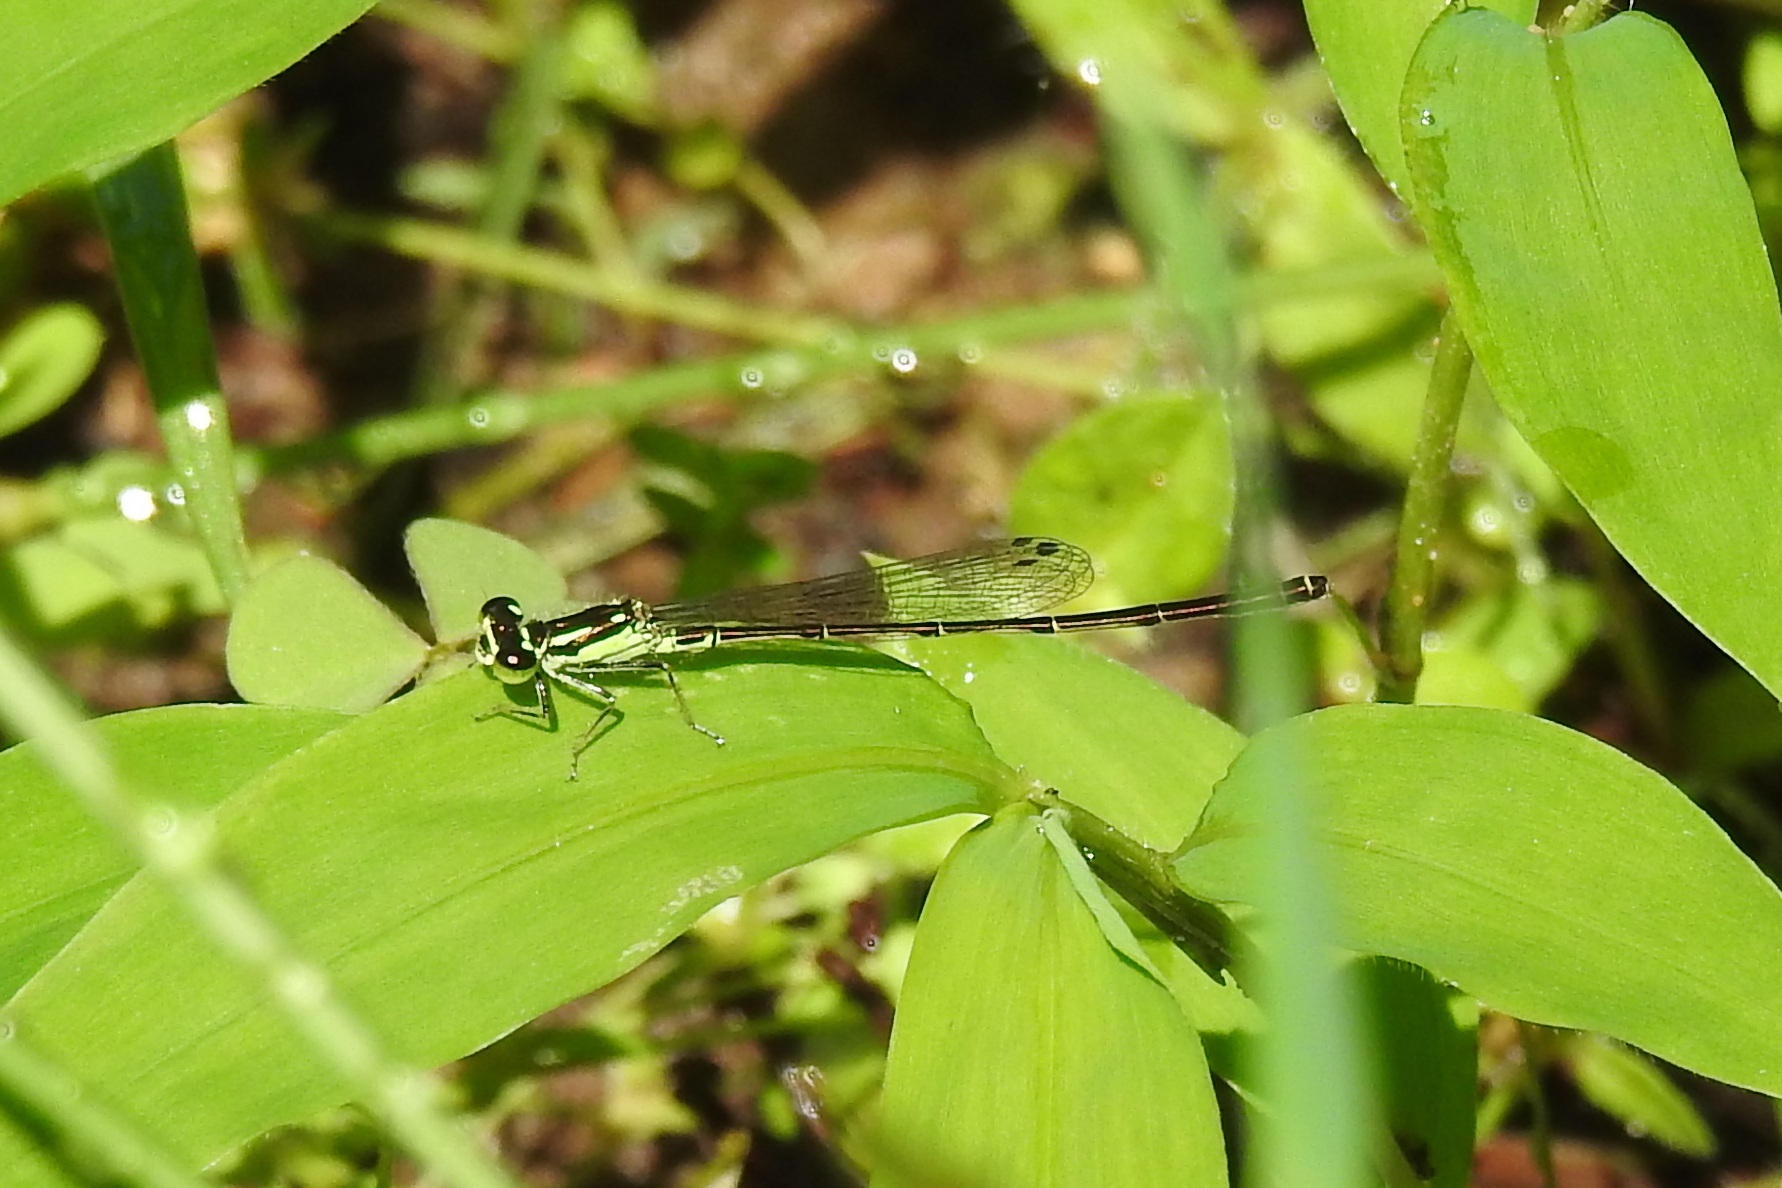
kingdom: Animalia
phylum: Arthropoda
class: Insecta
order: Odonata
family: Coenagrionidae
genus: Ischnura
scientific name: Ischnura posita
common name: Fragile forktail
